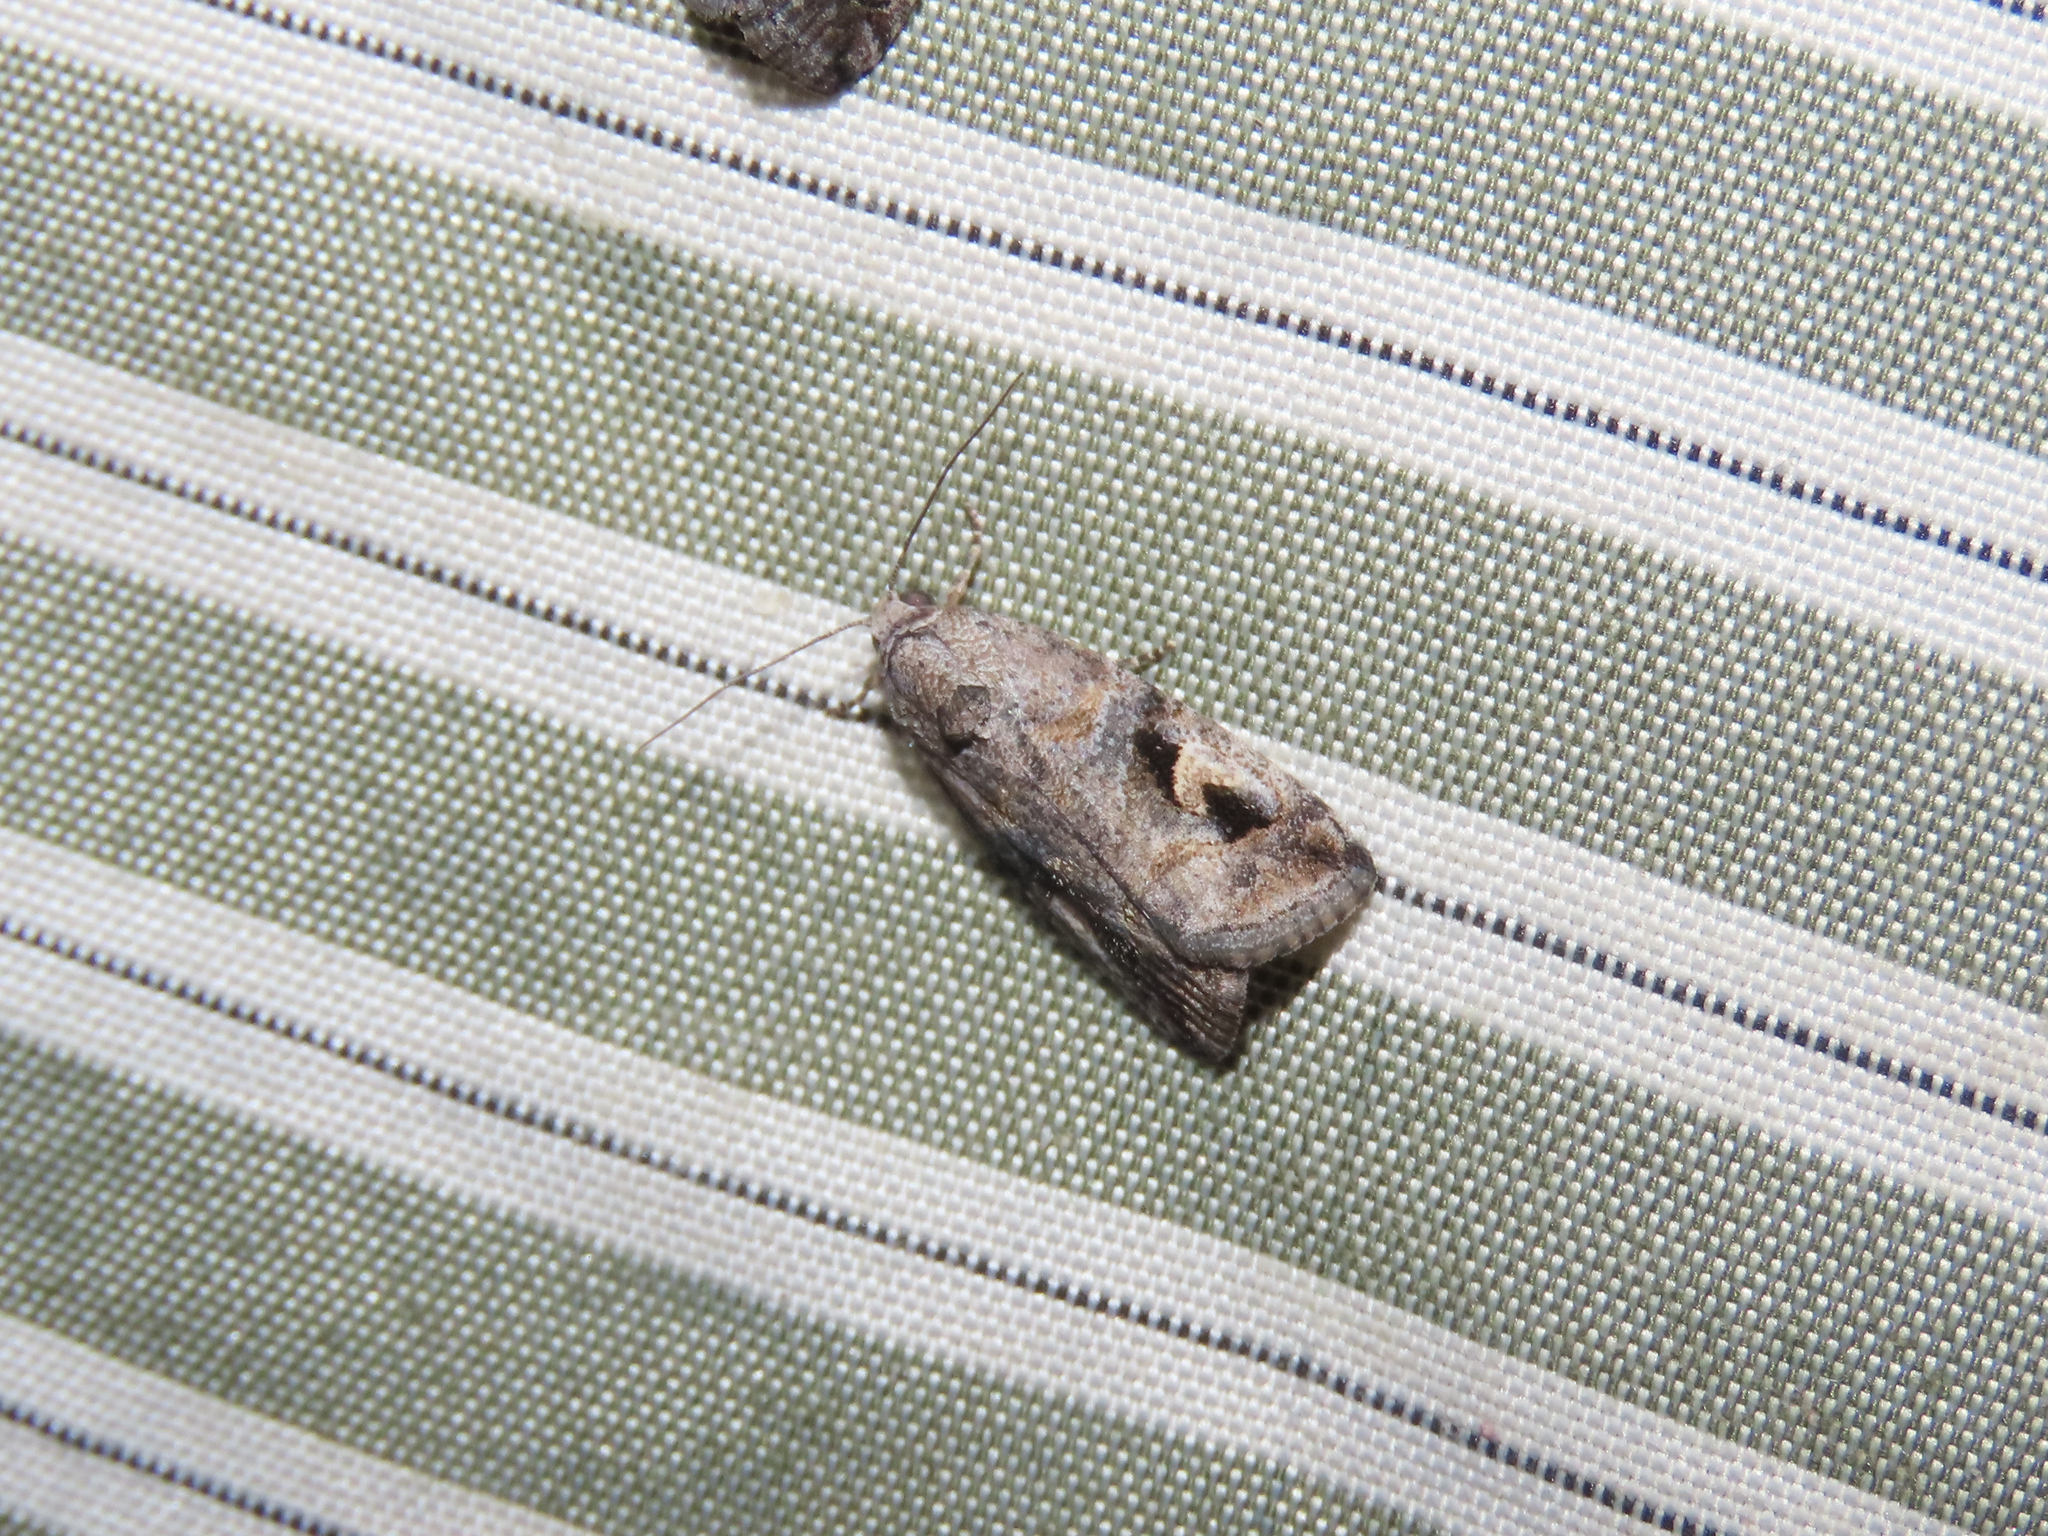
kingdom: Animalia
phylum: Arthropoda
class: Insecta
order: Lepidoptera
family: Noctuidae
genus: Metaponpneumata
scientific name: Metaponpneumata rogenhoferi
